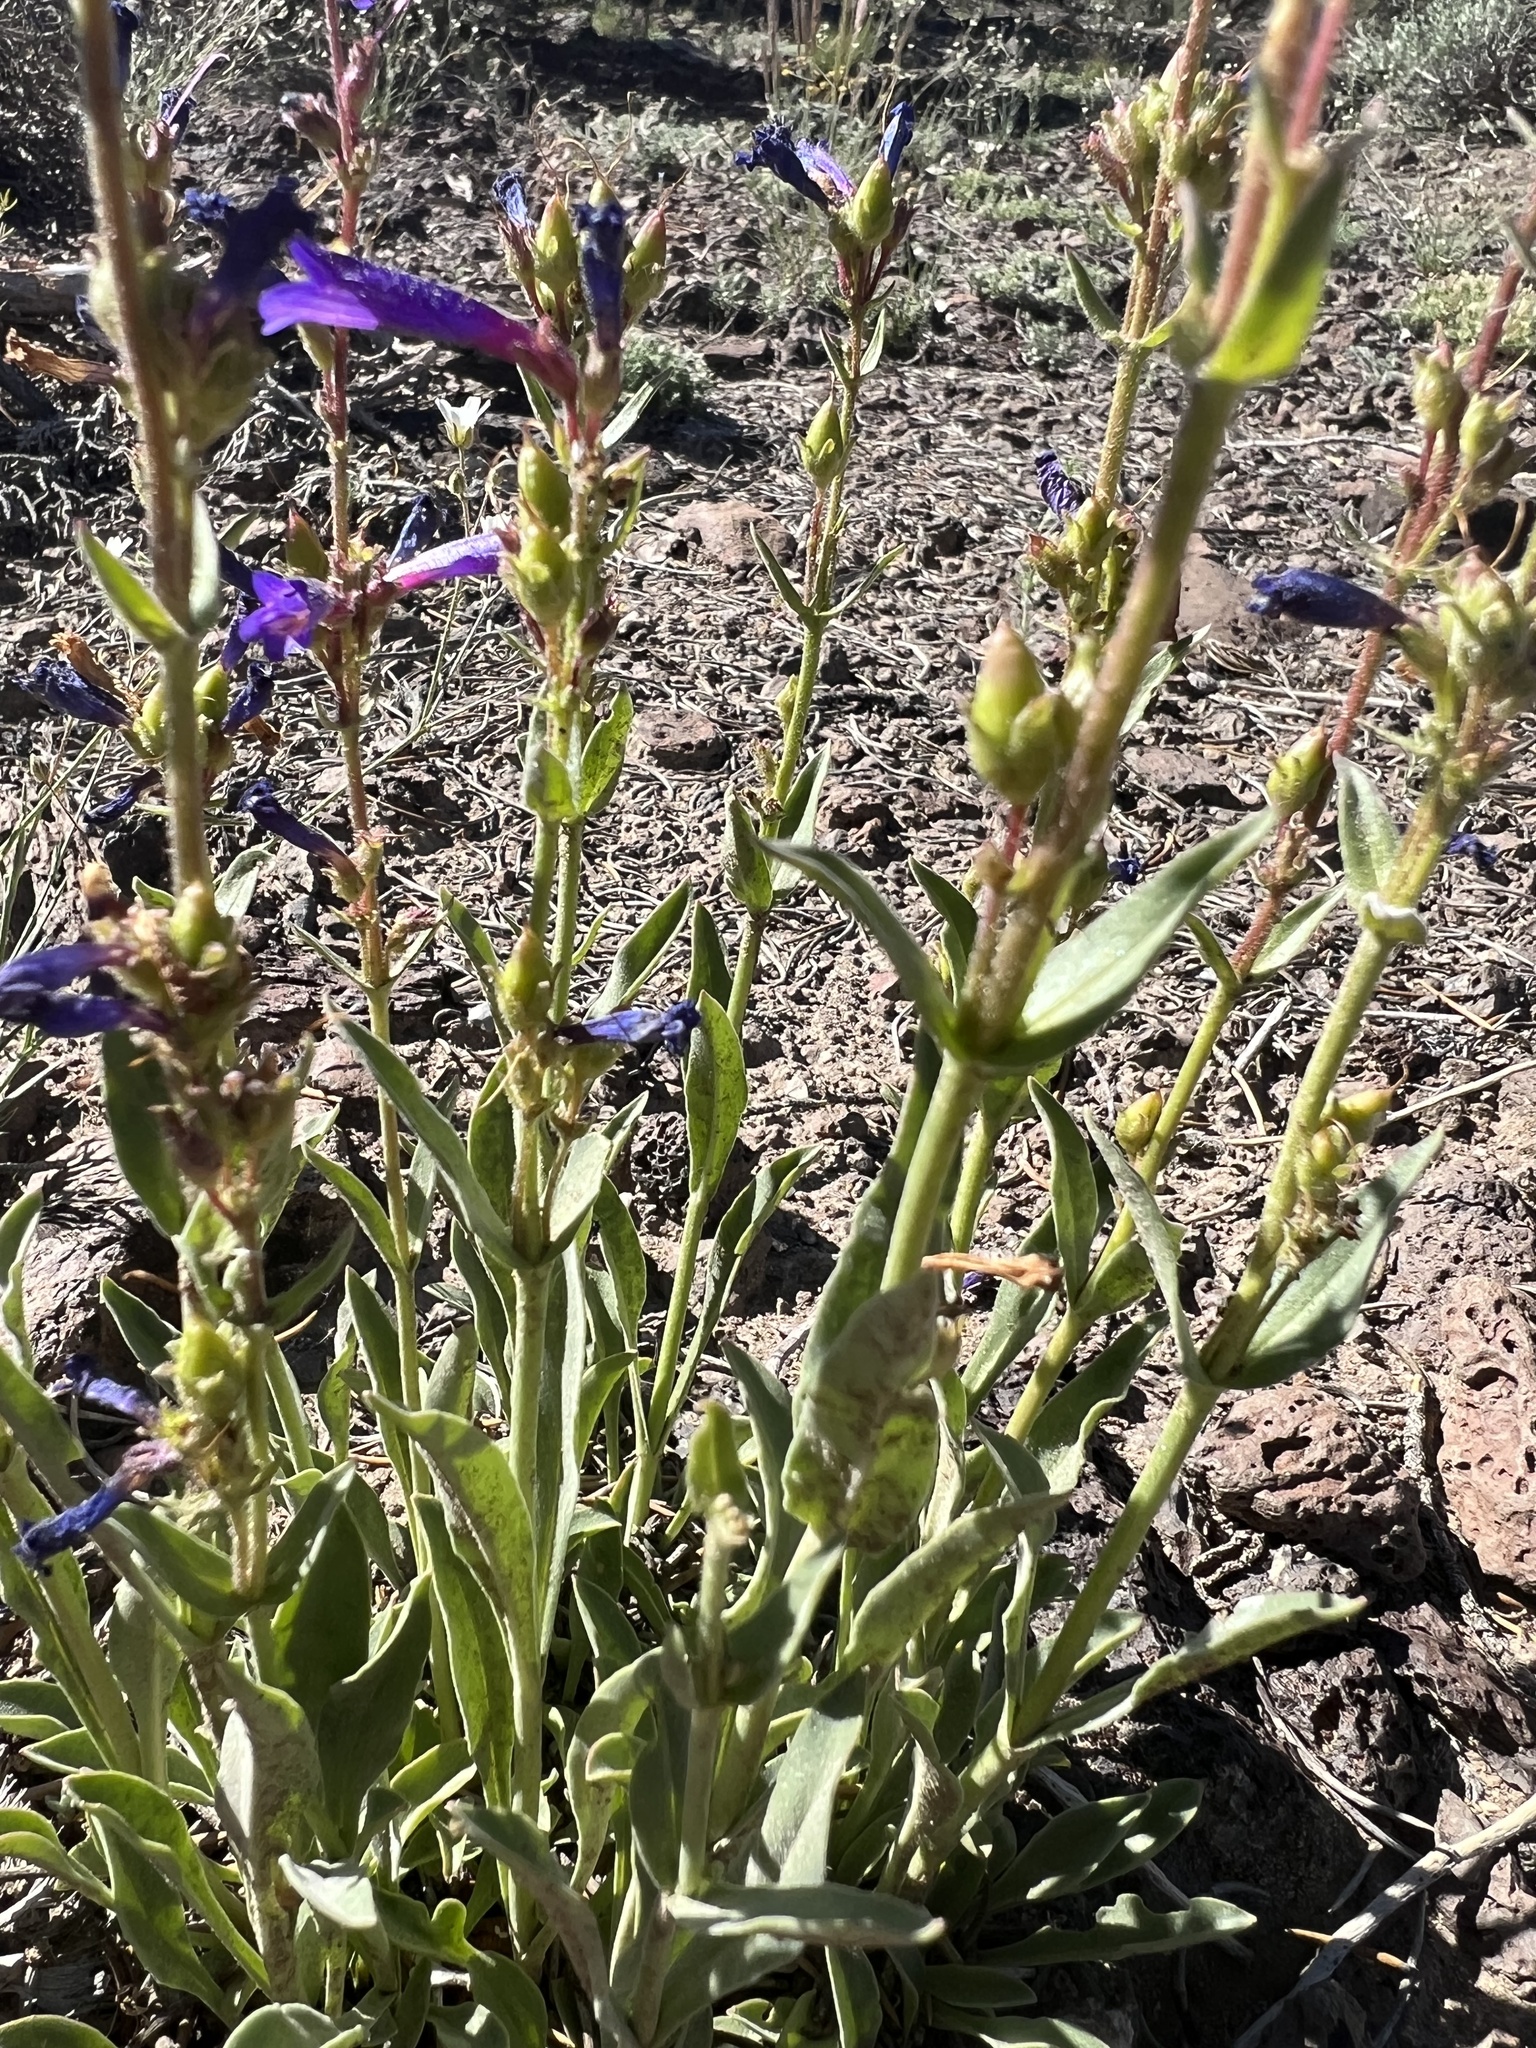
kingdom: Plantae
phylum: Tracheophyta
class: Magnoliopsida
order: Lamiales
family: Plantaginaceae
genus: Penstemon
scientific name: Penstemon humilis
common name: Low penstemon
